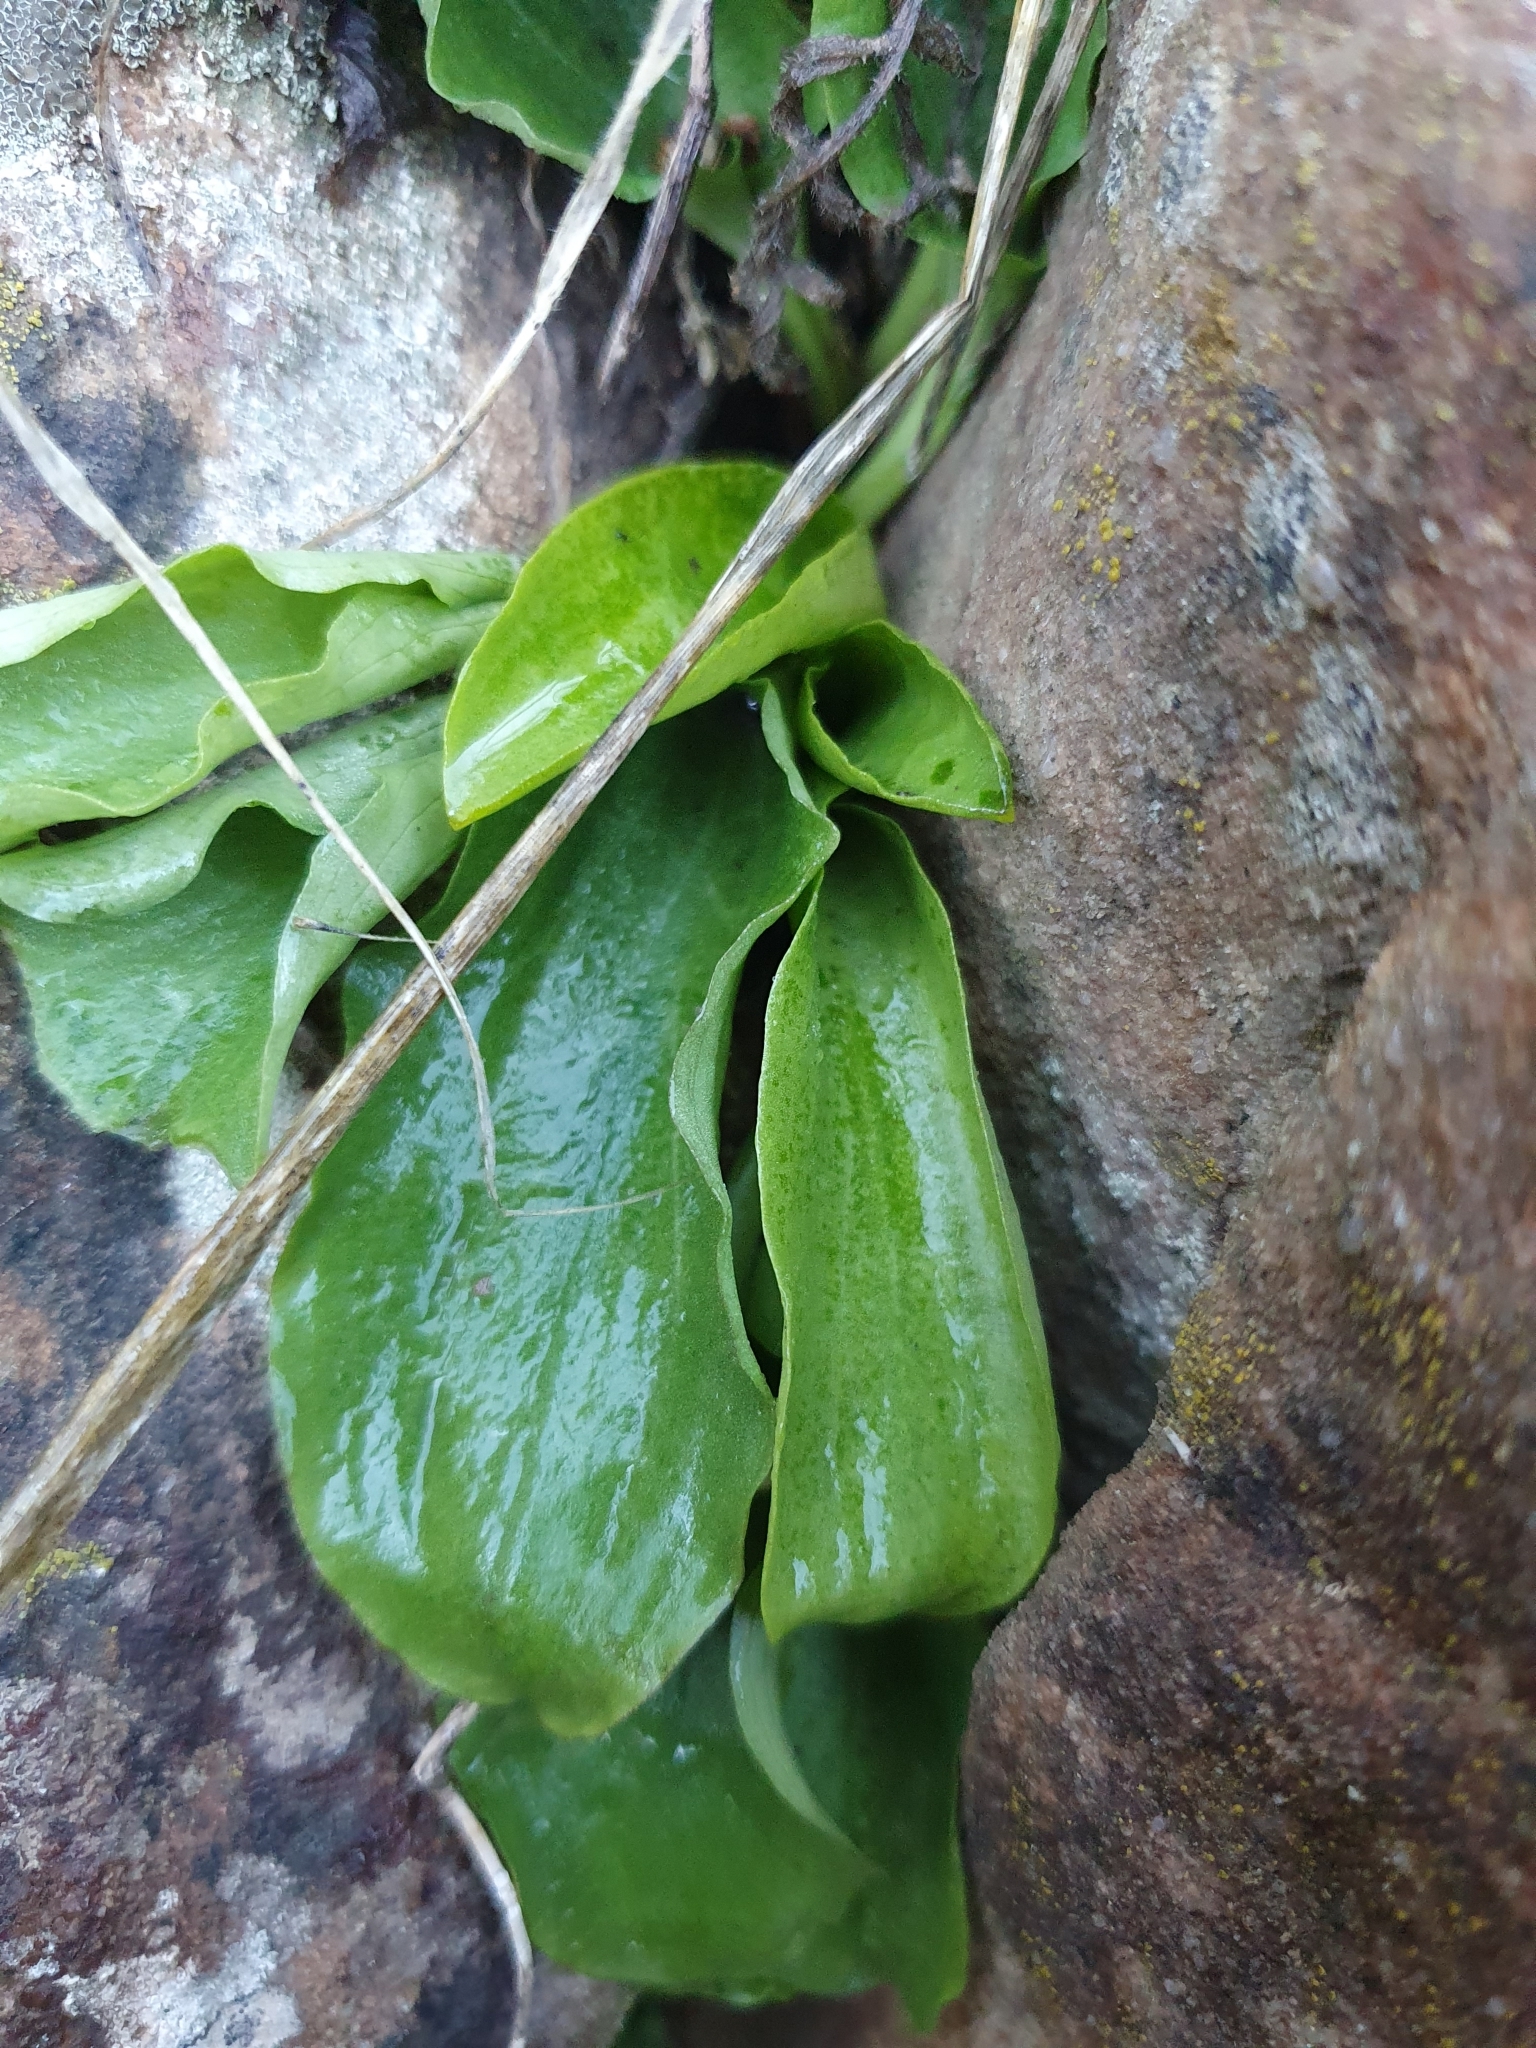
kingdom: Plantae
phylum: Tracheophyta
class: Liliopsida
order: Alismatales
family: Araceae
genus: Ambrosina
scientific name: Ambrosina bassii
